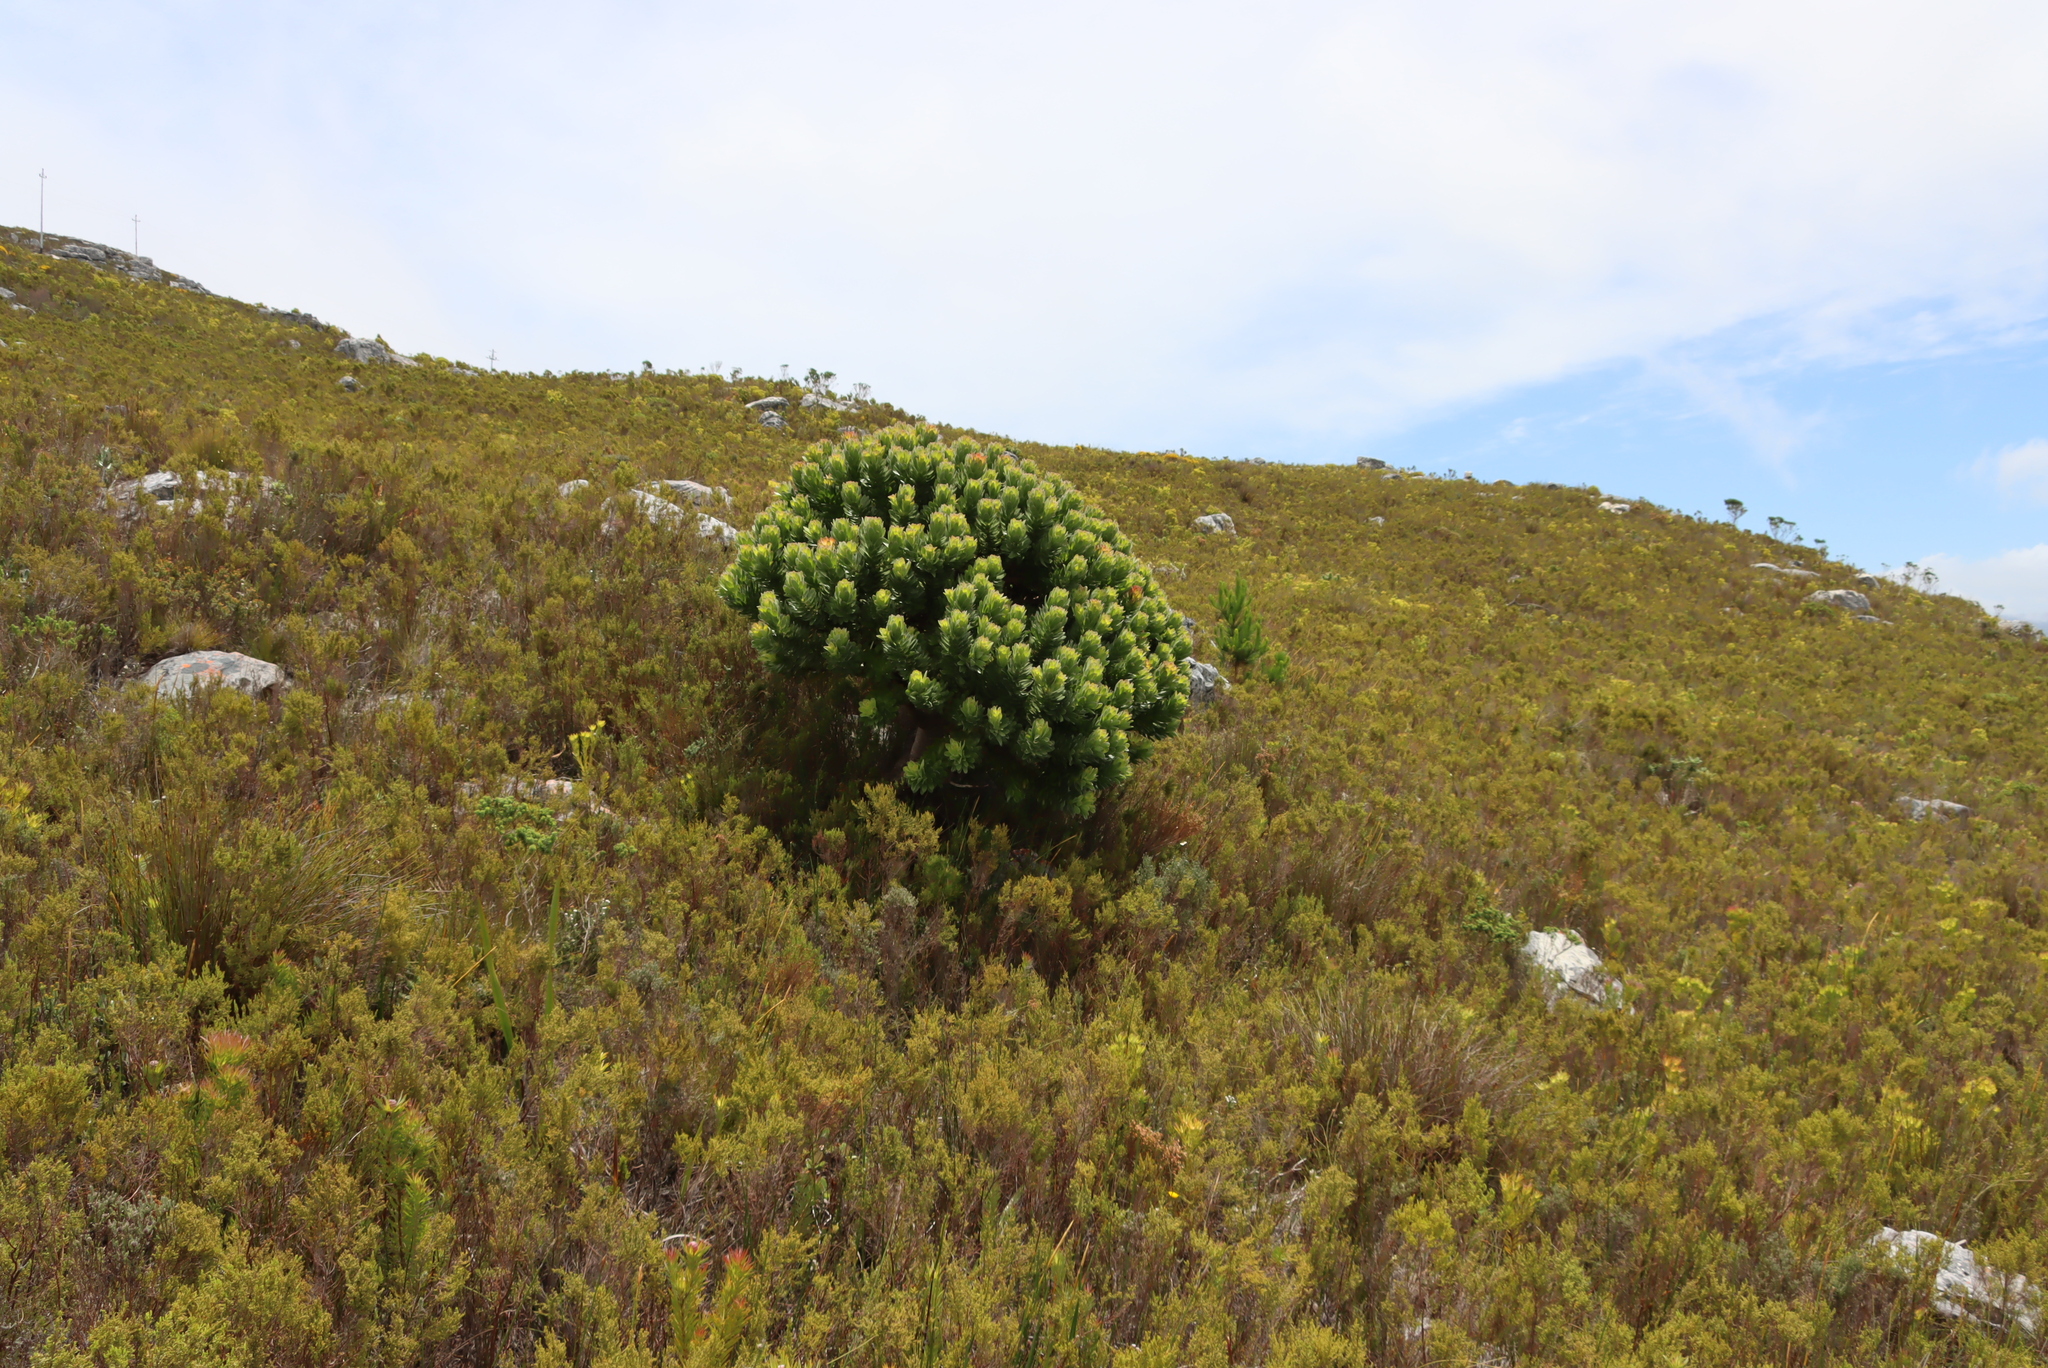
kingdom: Plantae
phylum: Tracheophyta
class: Magnoliopsida
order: Proteales
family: Proteaceae
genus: Mimetes
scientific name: Mimetes fimbriifolius
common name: Fringed bottlebrush
